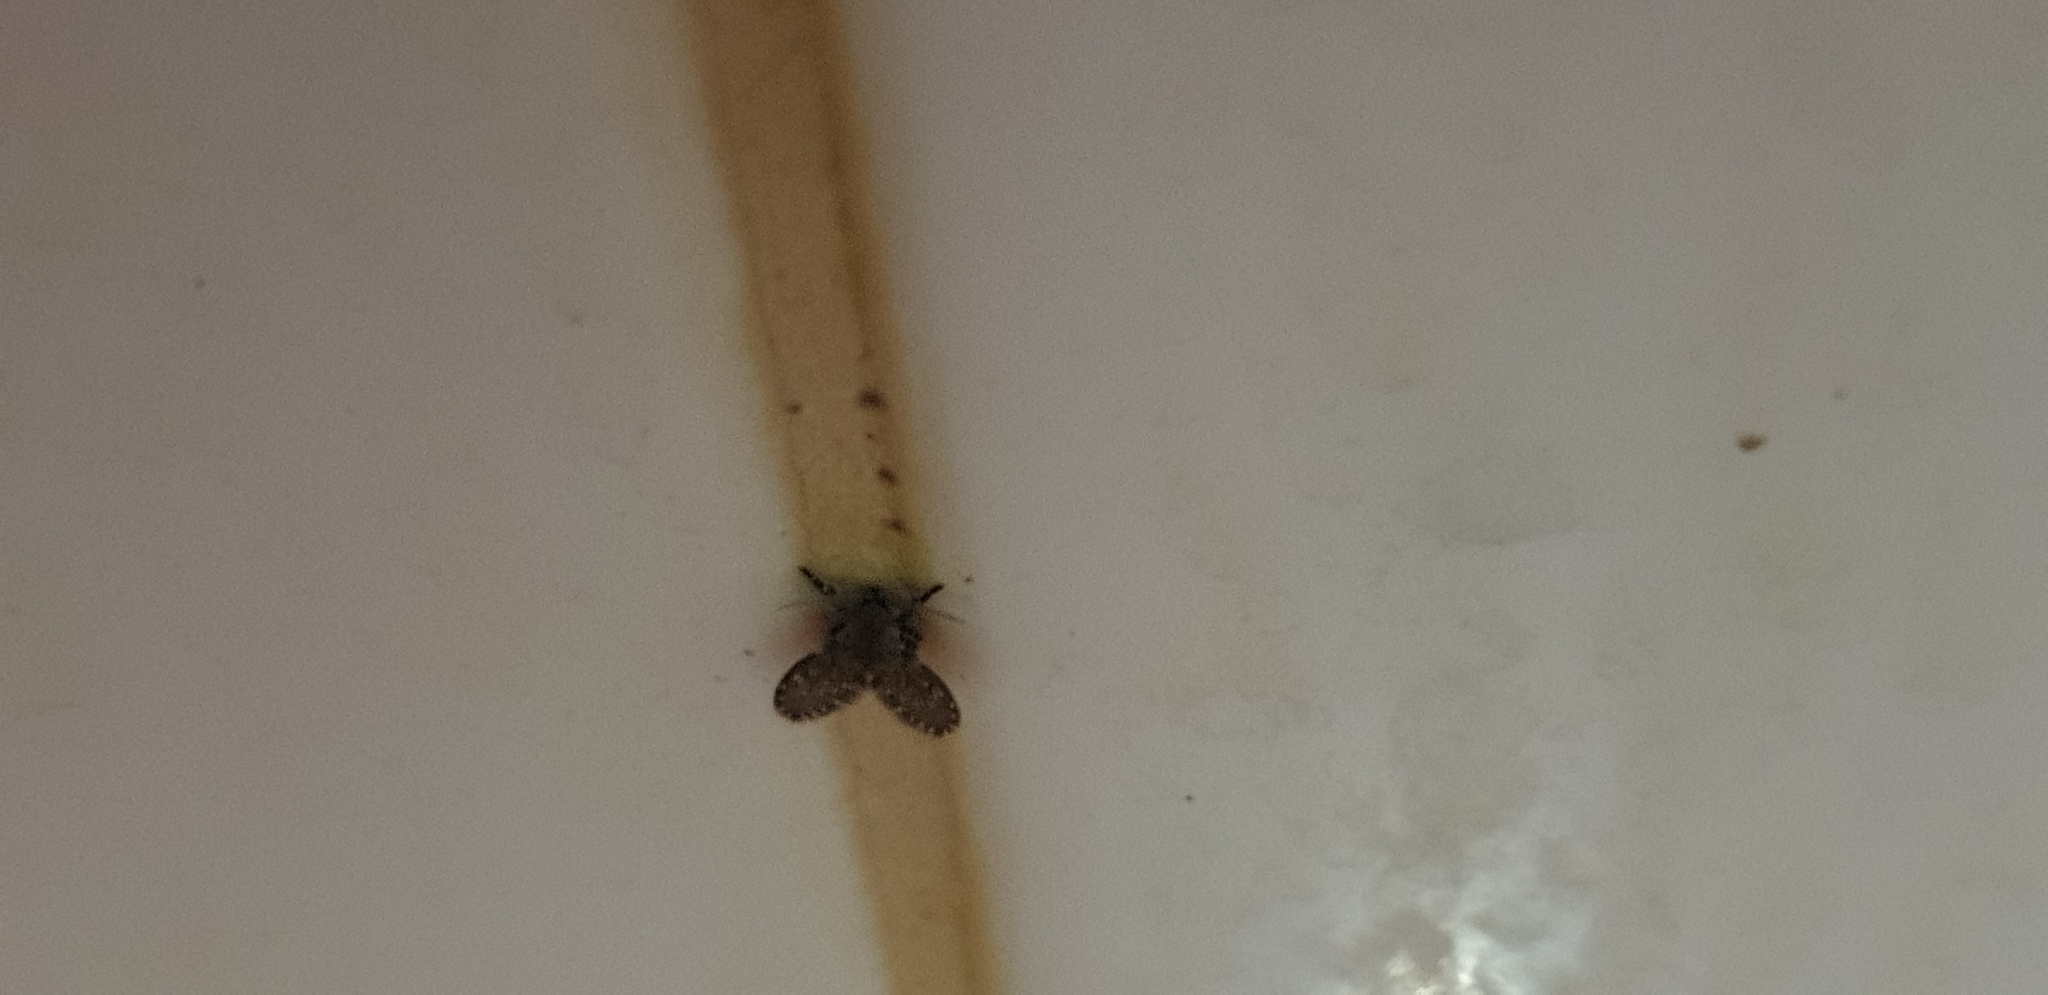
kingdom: Animalia
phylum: Arthropoda
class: Insecta
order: Diptera
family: Psychodidae
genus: Clogmia
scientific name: Clogmia albipunctatus
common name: White-spotted moth fly
